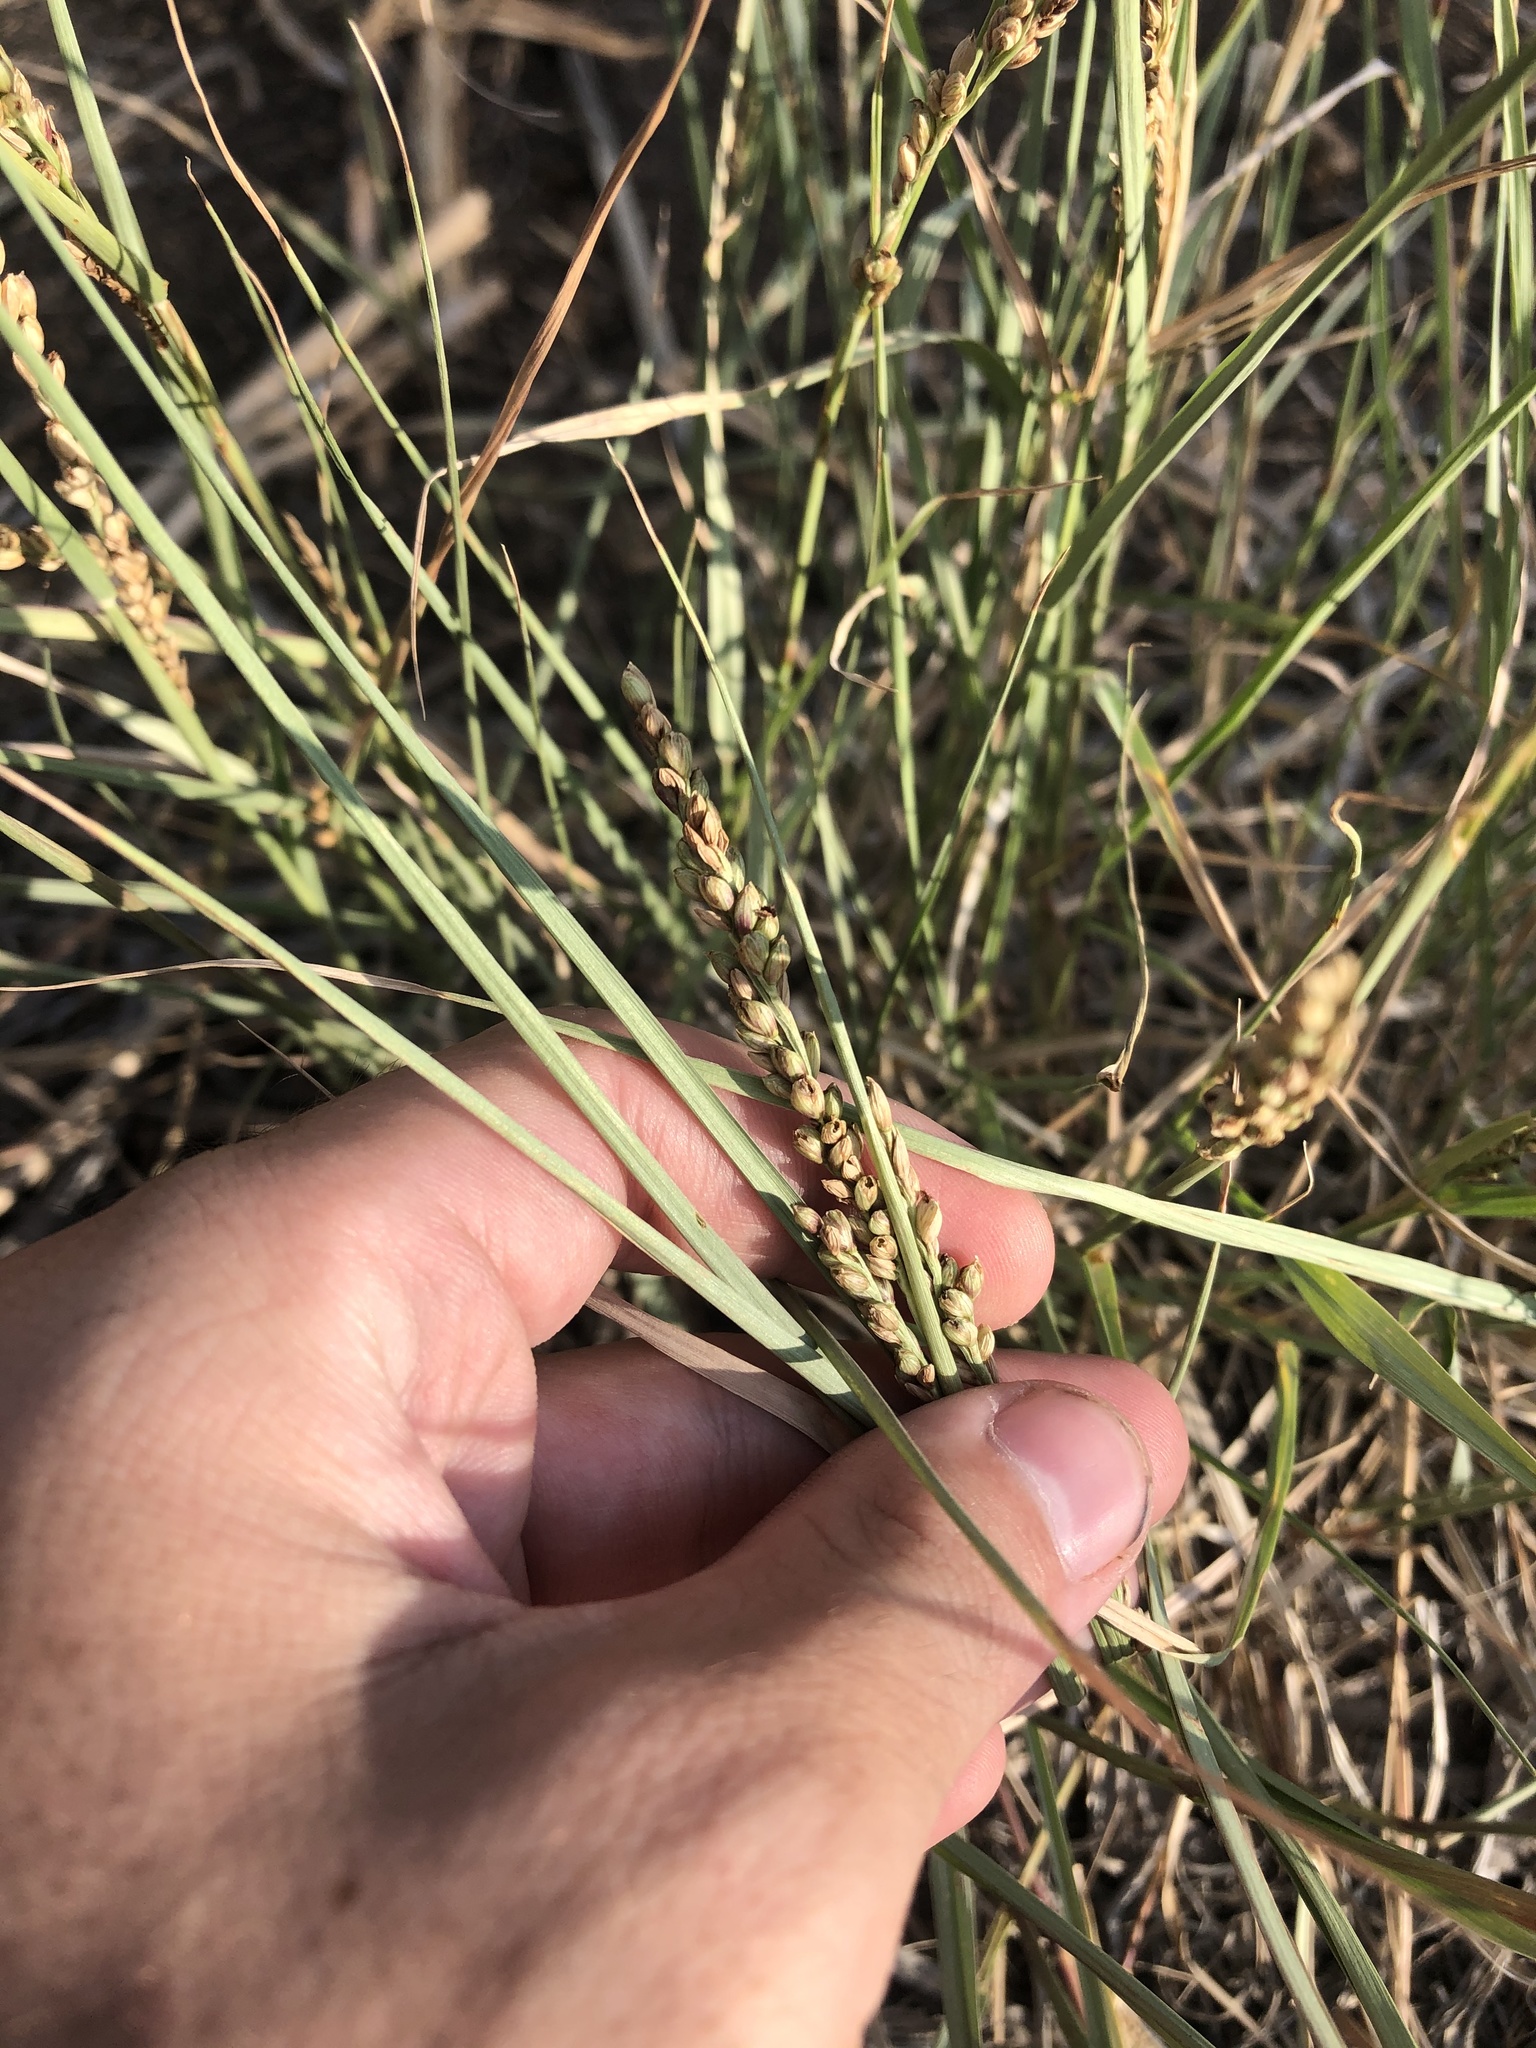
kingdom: Plantae
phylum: Tracheophyta
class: Liliopsida
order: Poales
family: Poaceae
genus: Hopia
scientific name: Hopia obtusa
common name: Vine-mesquite
